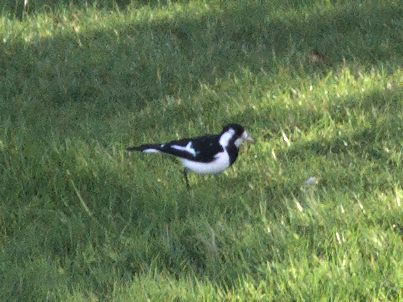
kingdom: Animalia
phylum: Chordata
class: Aves
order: Passeriformes
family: Monarchidae
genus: Grallina
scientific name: Grallina cyanoleuca
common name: Magpie-lark
